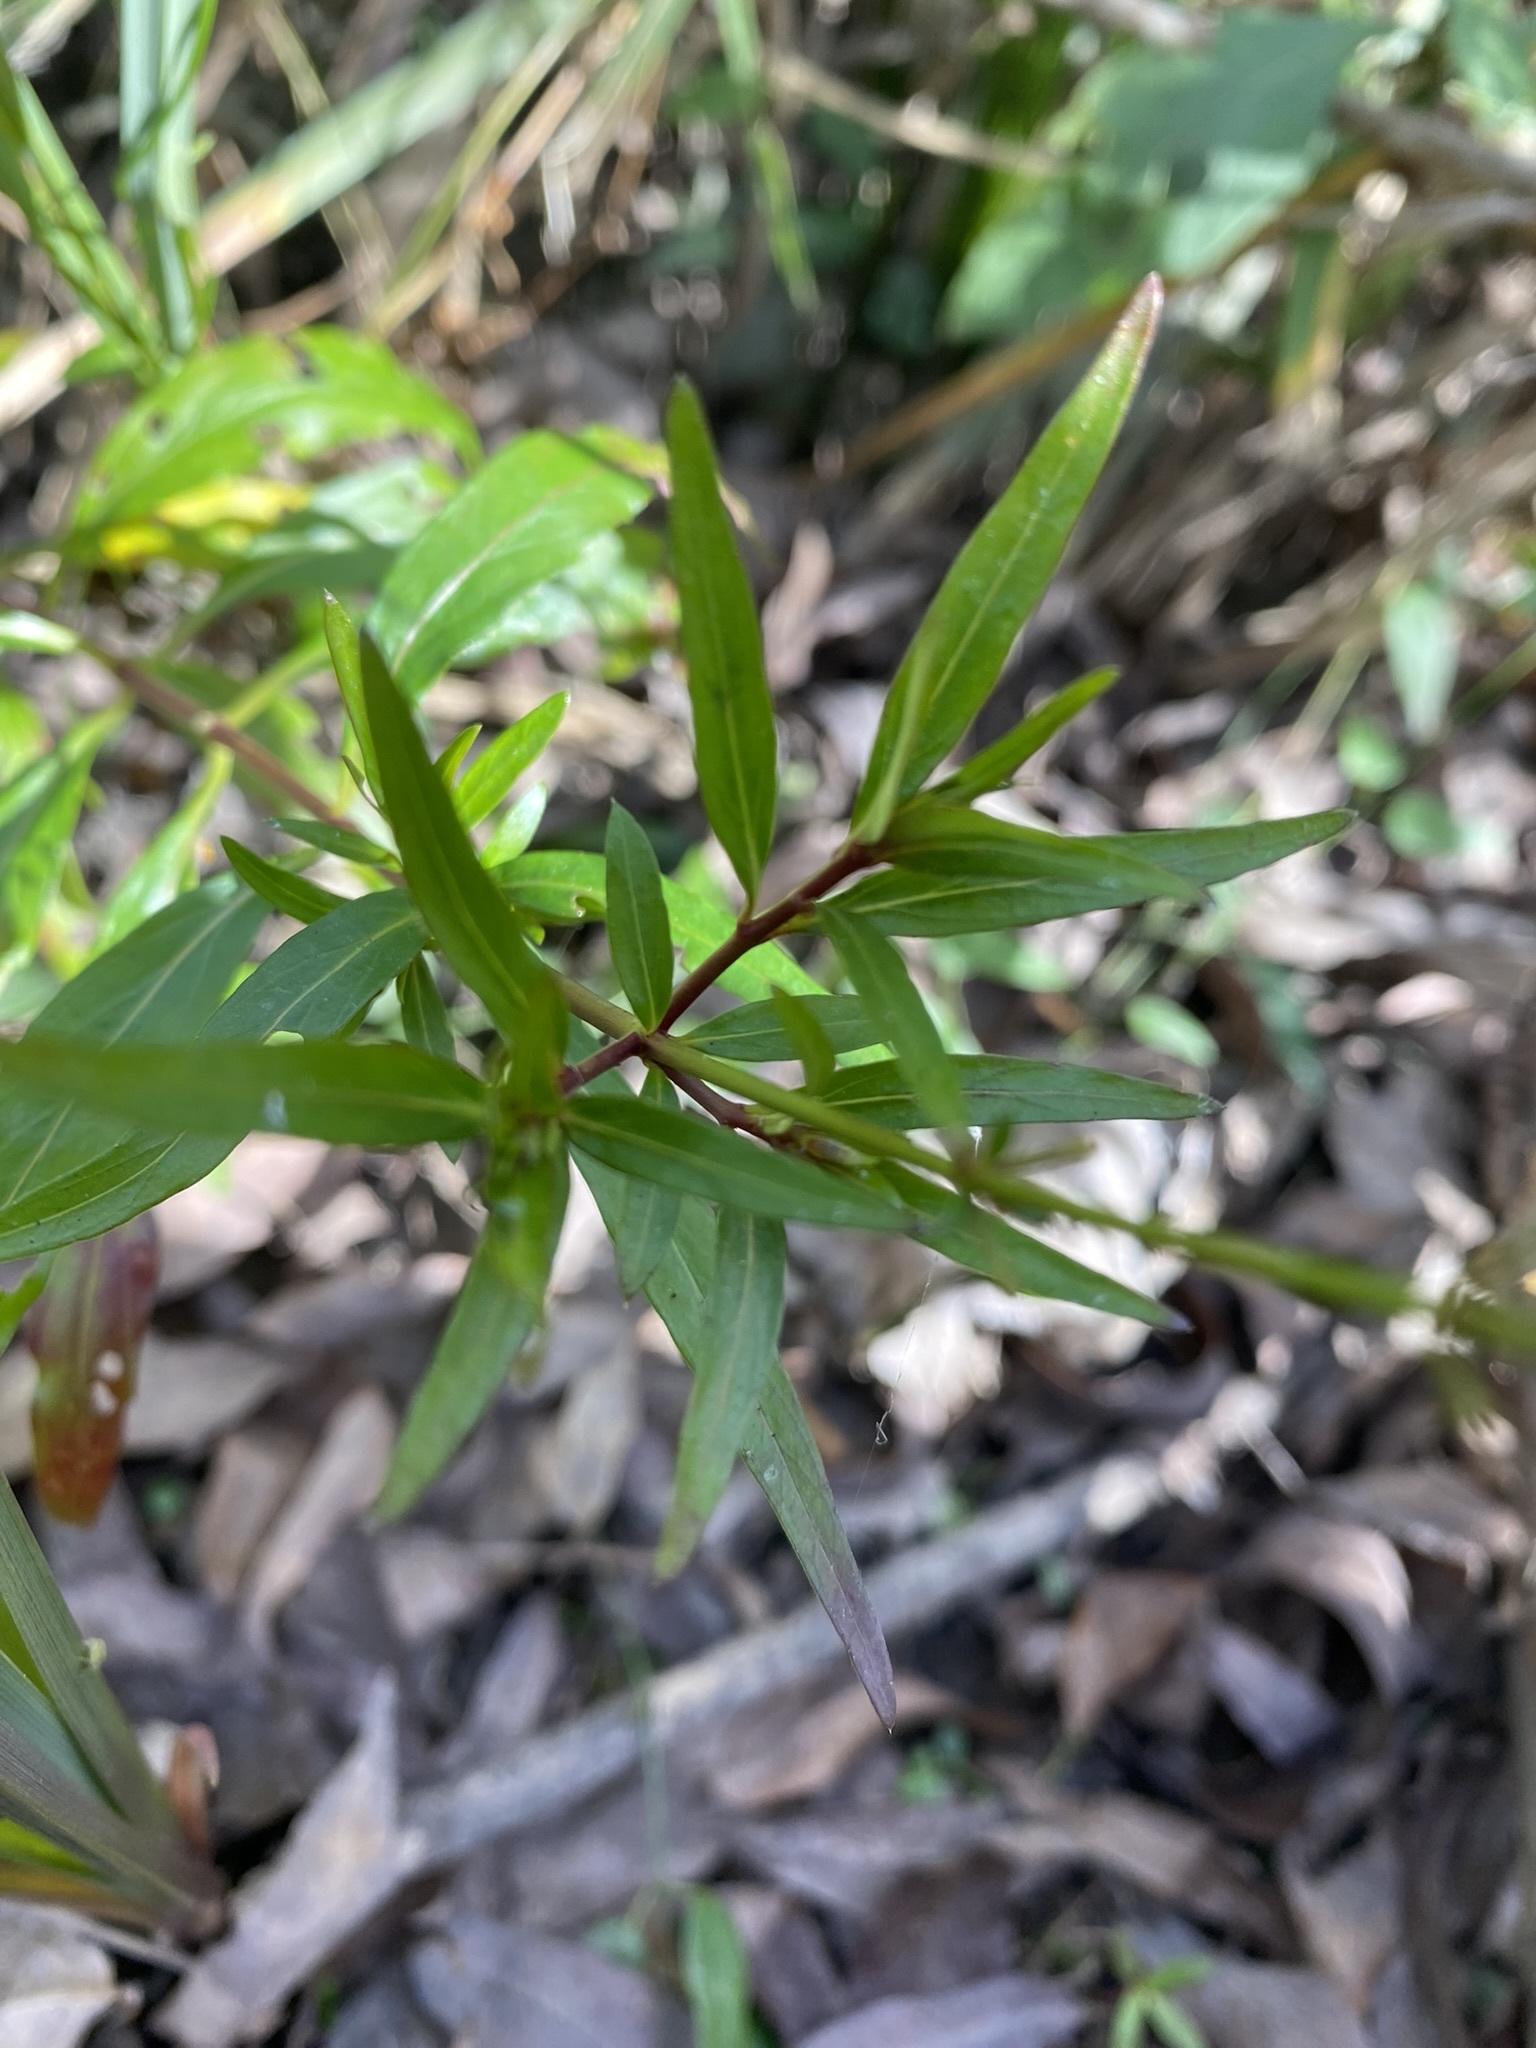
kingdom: Plantae
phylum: Tracheophyta
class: Magnoliopsida
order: Myrtales
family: Lythraceae
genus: Cuphea
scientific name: Cuphea fruticosa
